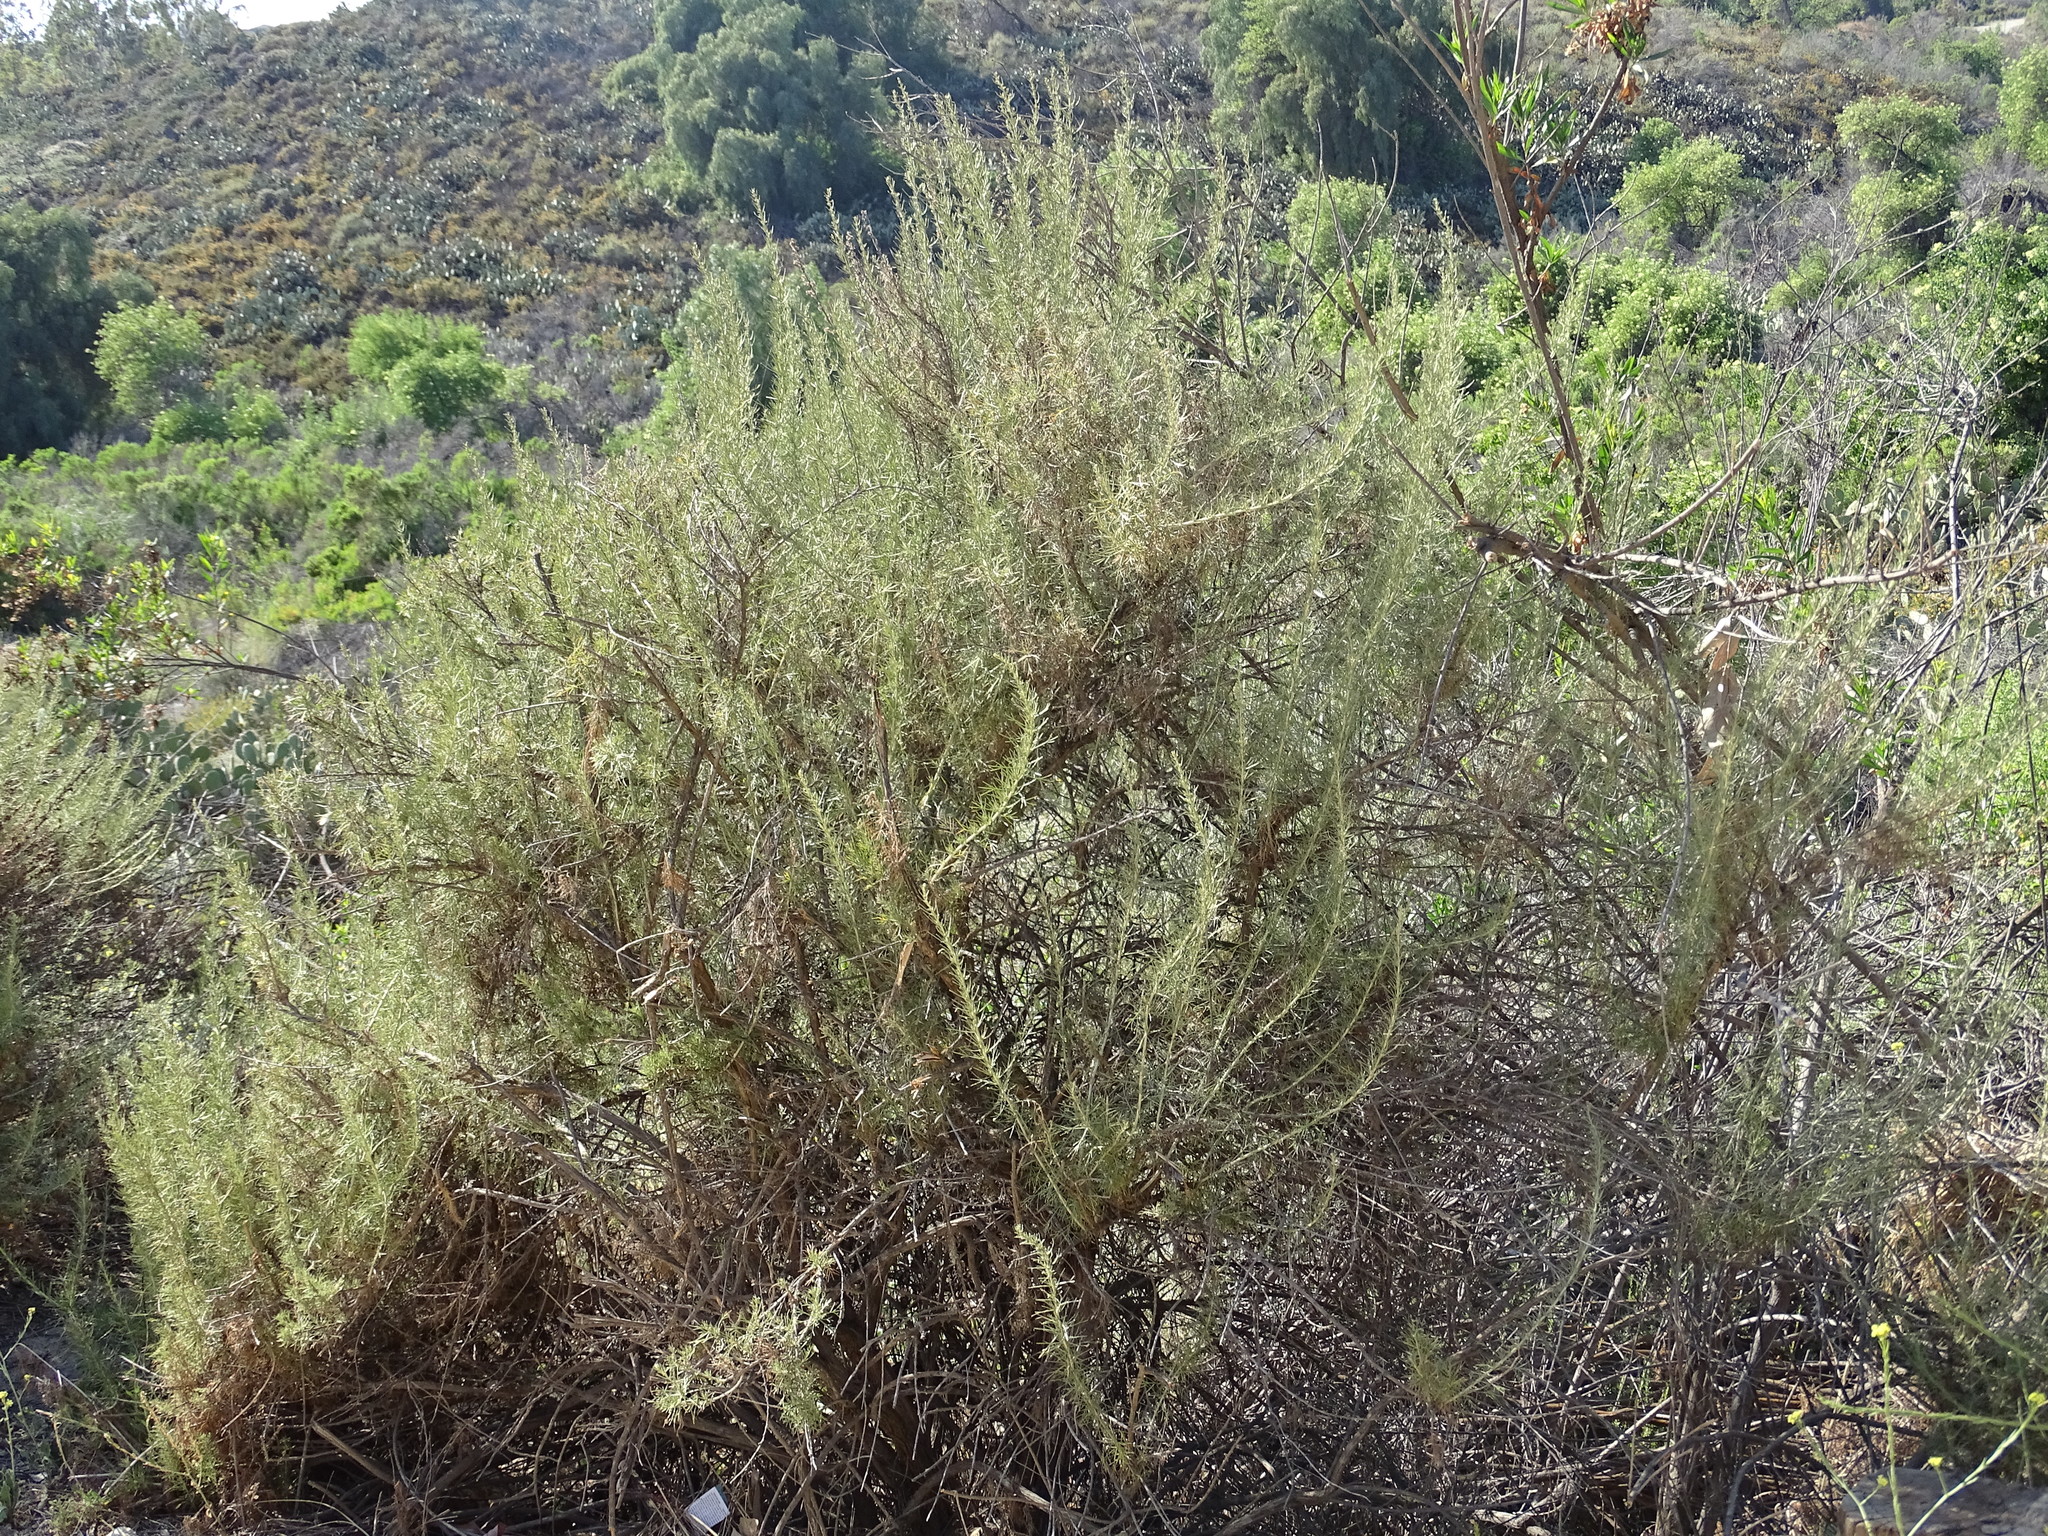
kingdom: Plantae
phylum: Tracheophyta
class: Magnoliopsida
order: Asterales
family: Asteraceae
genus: Artemisia
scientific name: Artemisia californica
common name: California sagebrush
